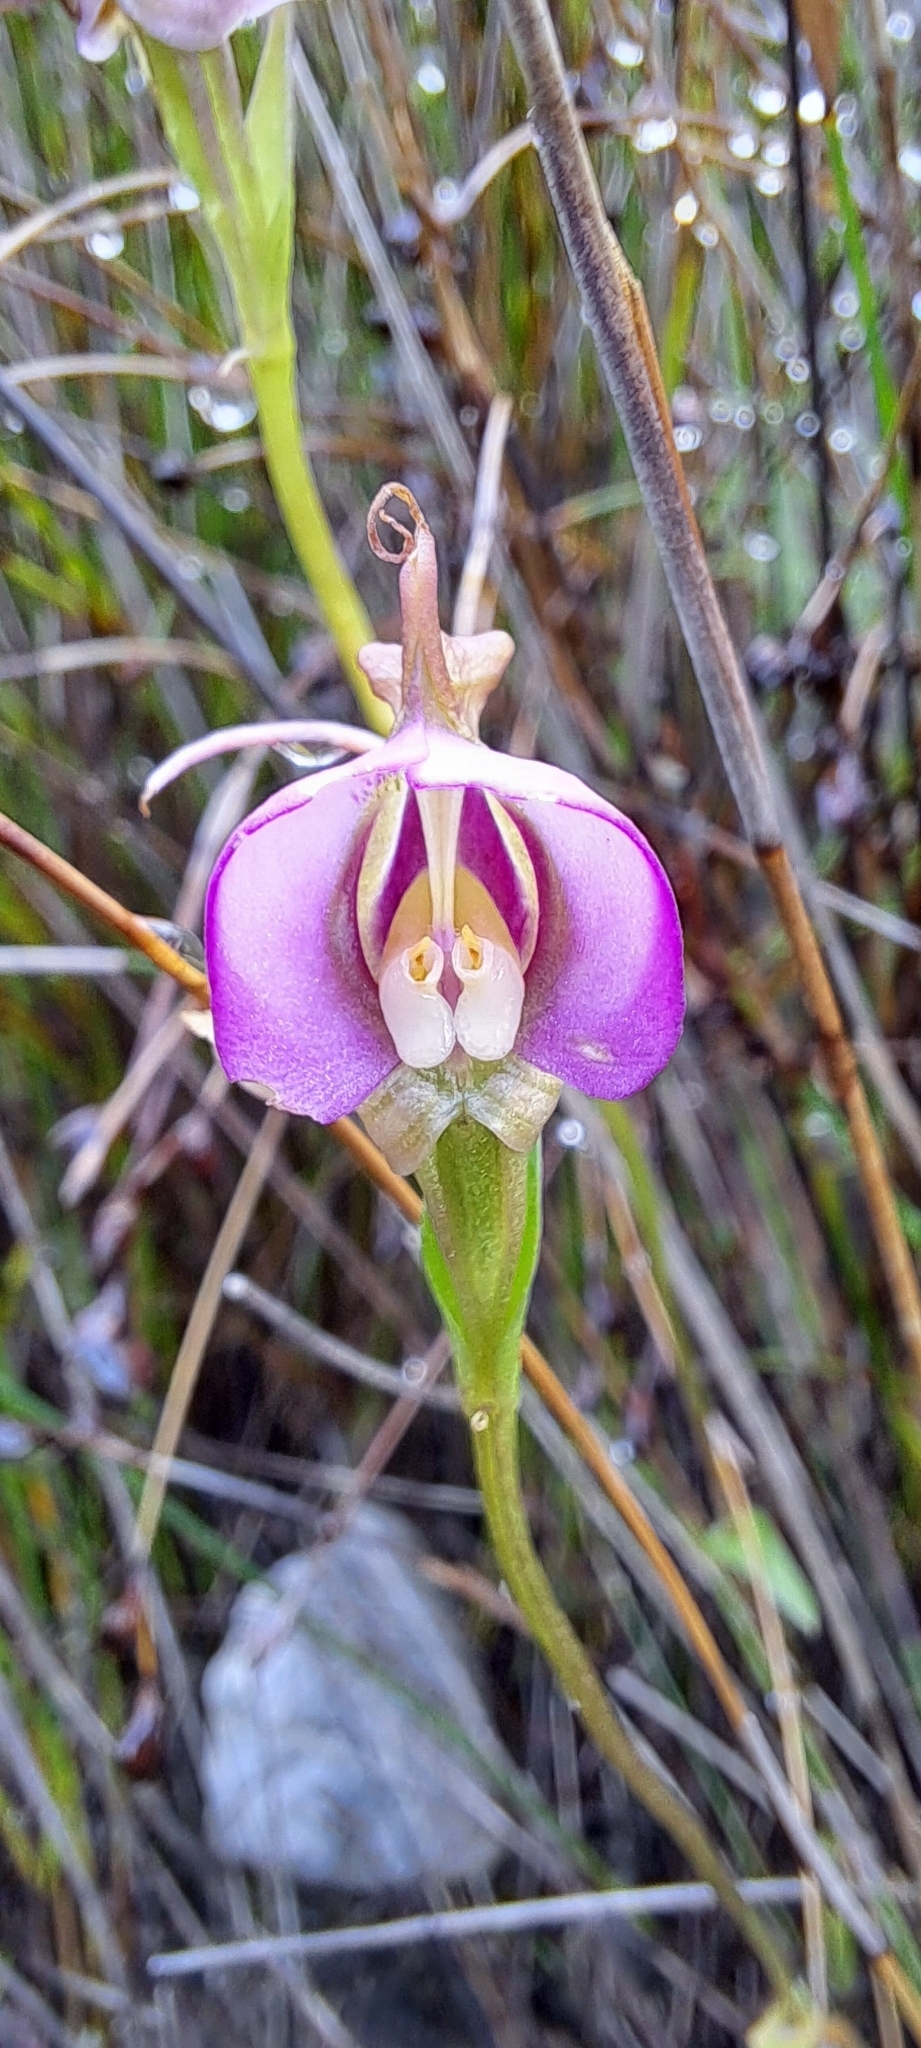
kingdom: Plantae
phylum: Tracheophyta
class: Liliopsida
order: Asparagales
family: Orchidaceae
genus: Disperis
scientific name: Disperis capensis
